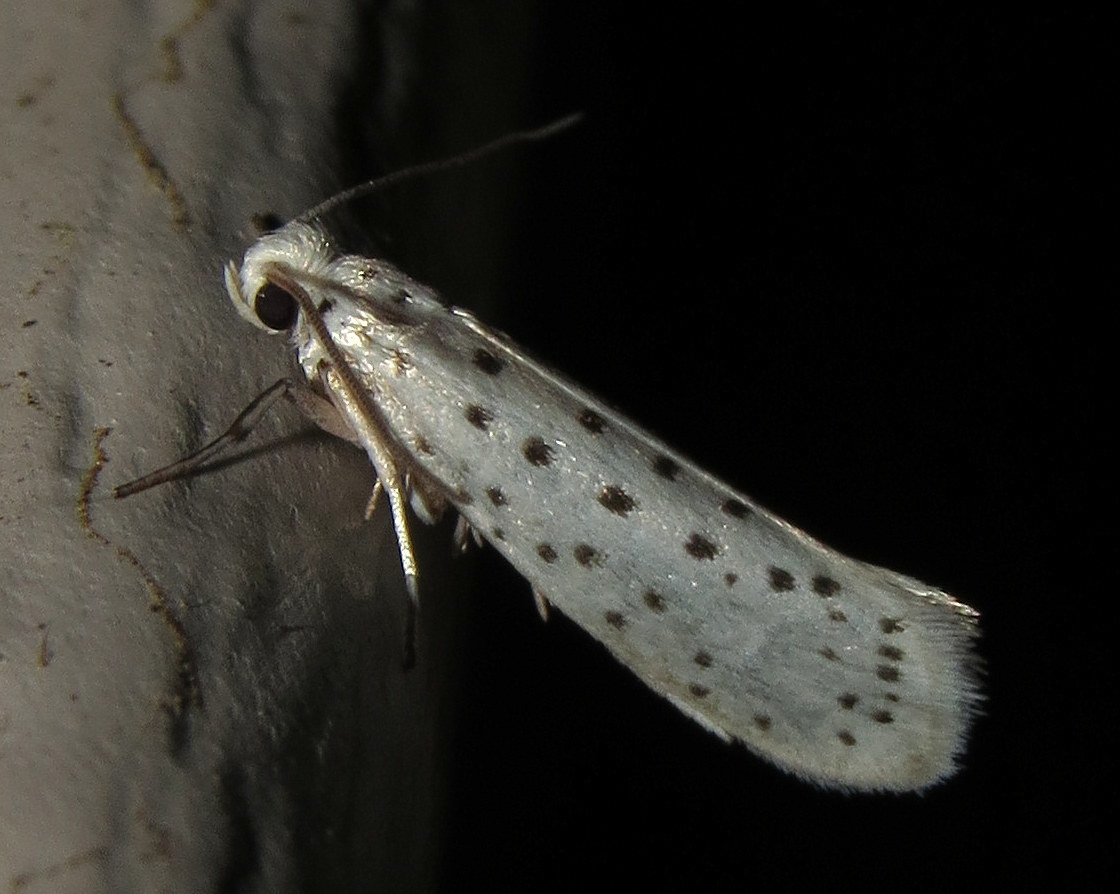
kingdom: Animalia
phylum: Arthropoda
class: Insecta
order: Lepidoptera
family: Yponomeutidae
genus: Yponomeuta
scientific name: Yponomeuta multipunctella
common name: American ermine moth
